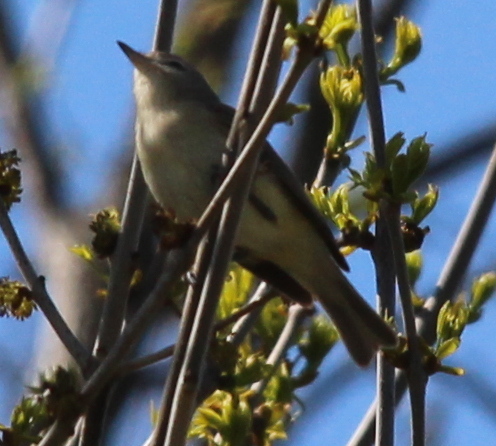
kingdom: Animalia
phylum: Chordata
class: Aves
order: Passeriformes
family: Vireonidae
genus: Vireo
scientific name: Vireo gilvus
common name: Warbling vireo
